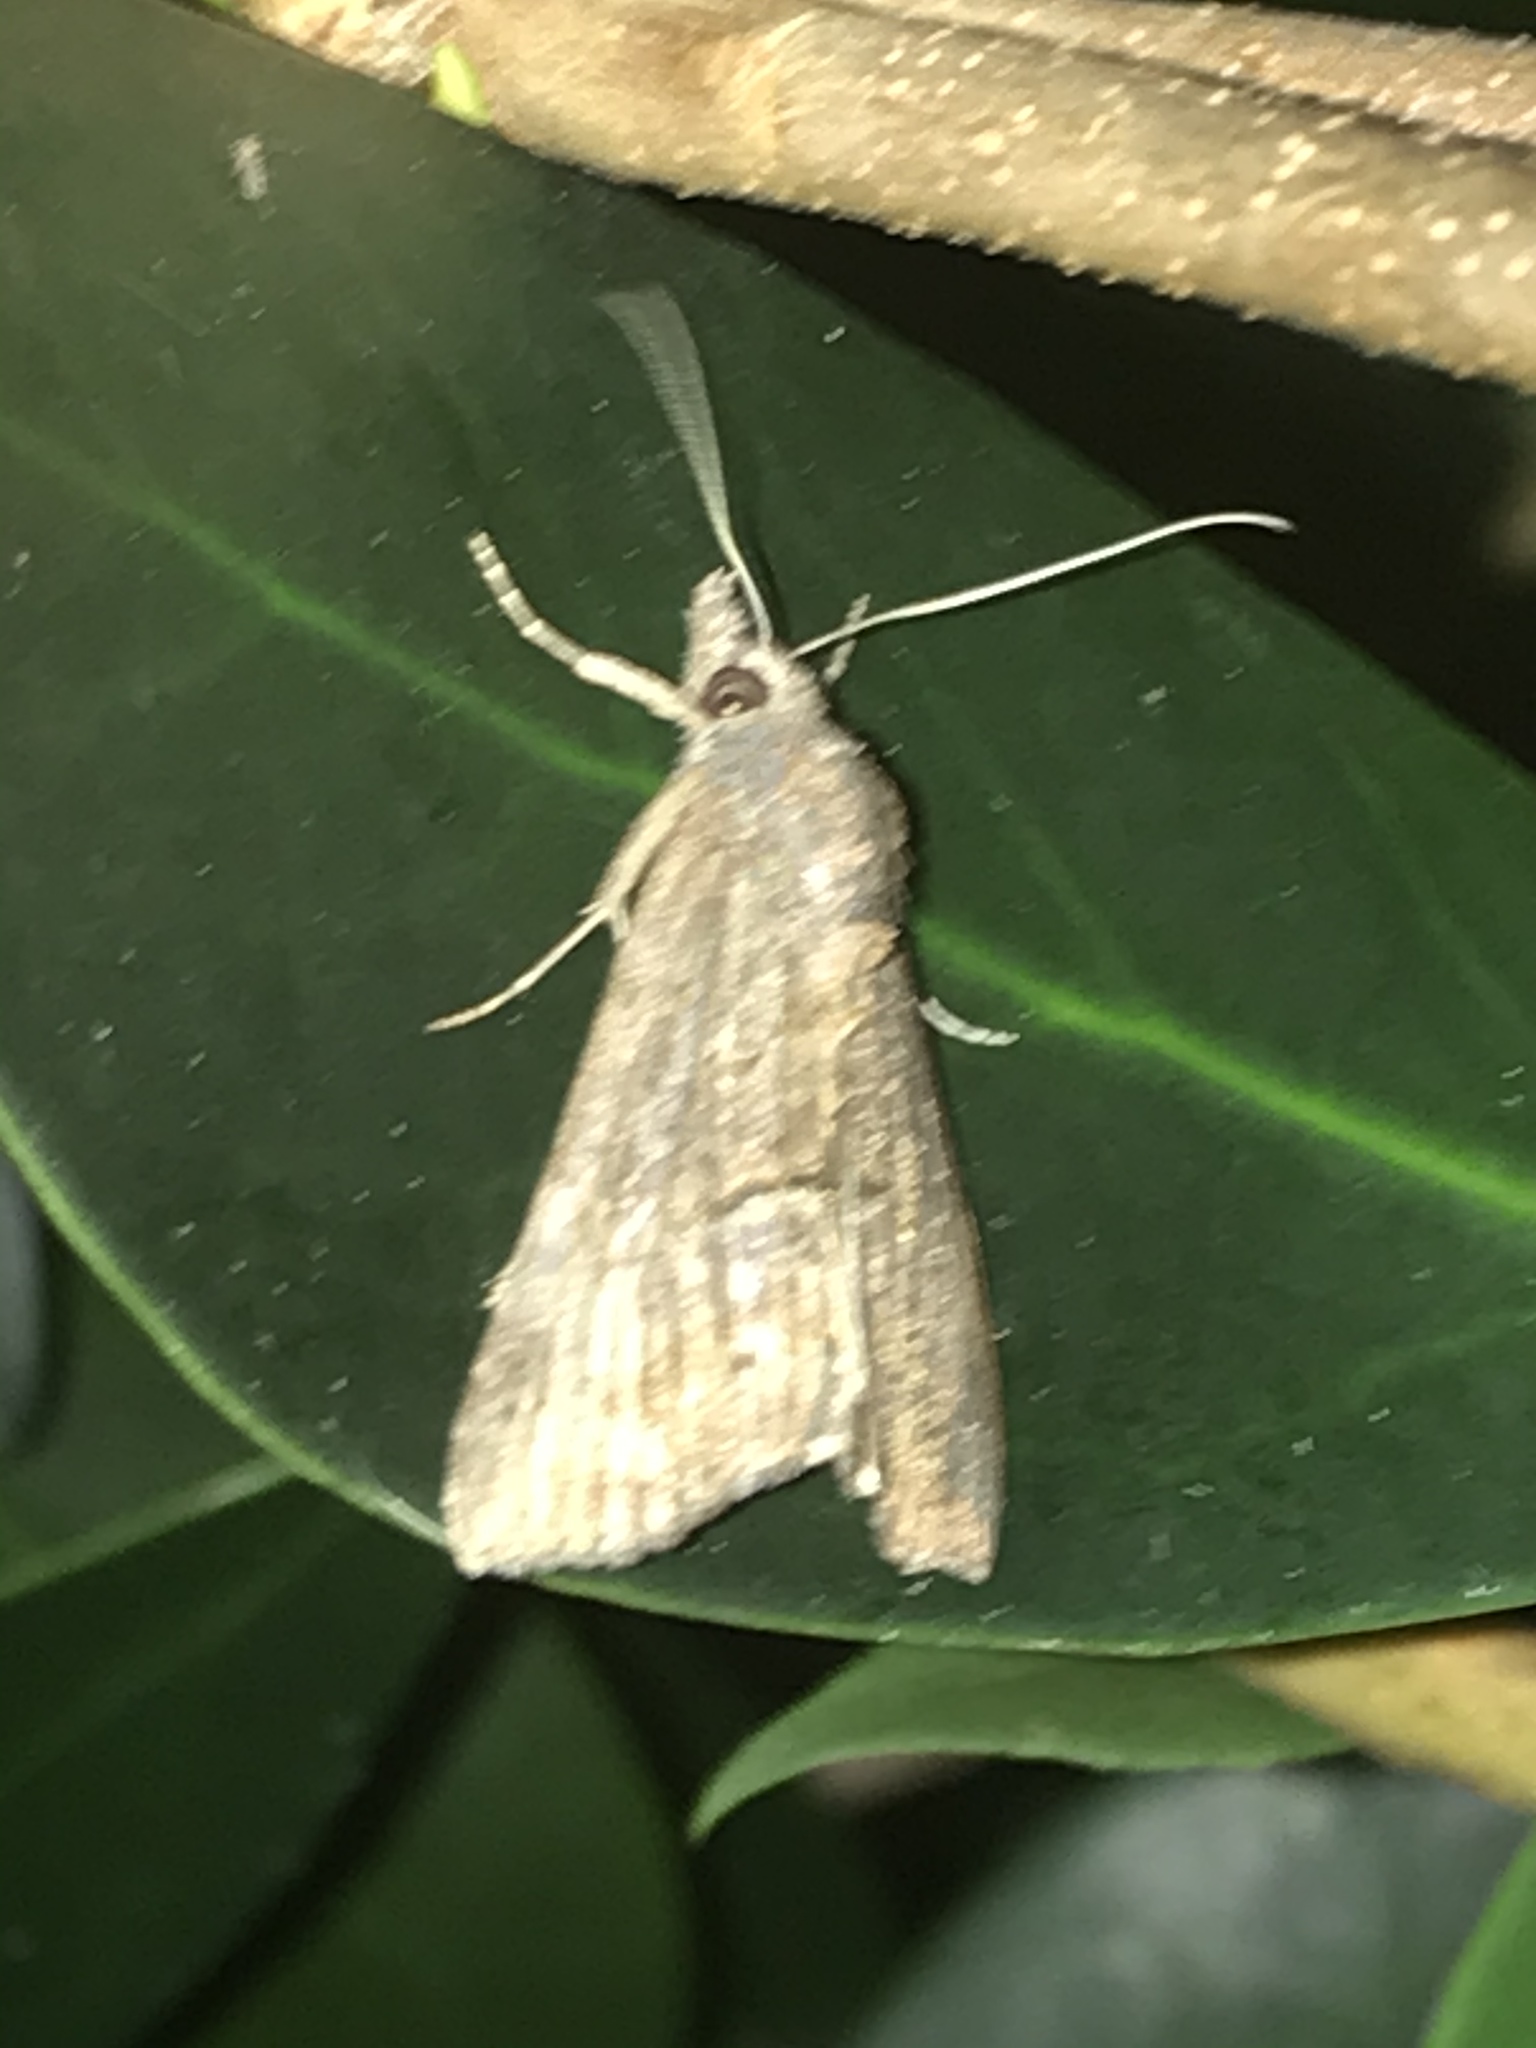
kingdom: Animalia
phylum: Arthropoda
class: Insecta
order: Lepidoptera
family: Erebidae
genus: Hypena
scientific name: Hypena scabra
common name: Green cloverworm
